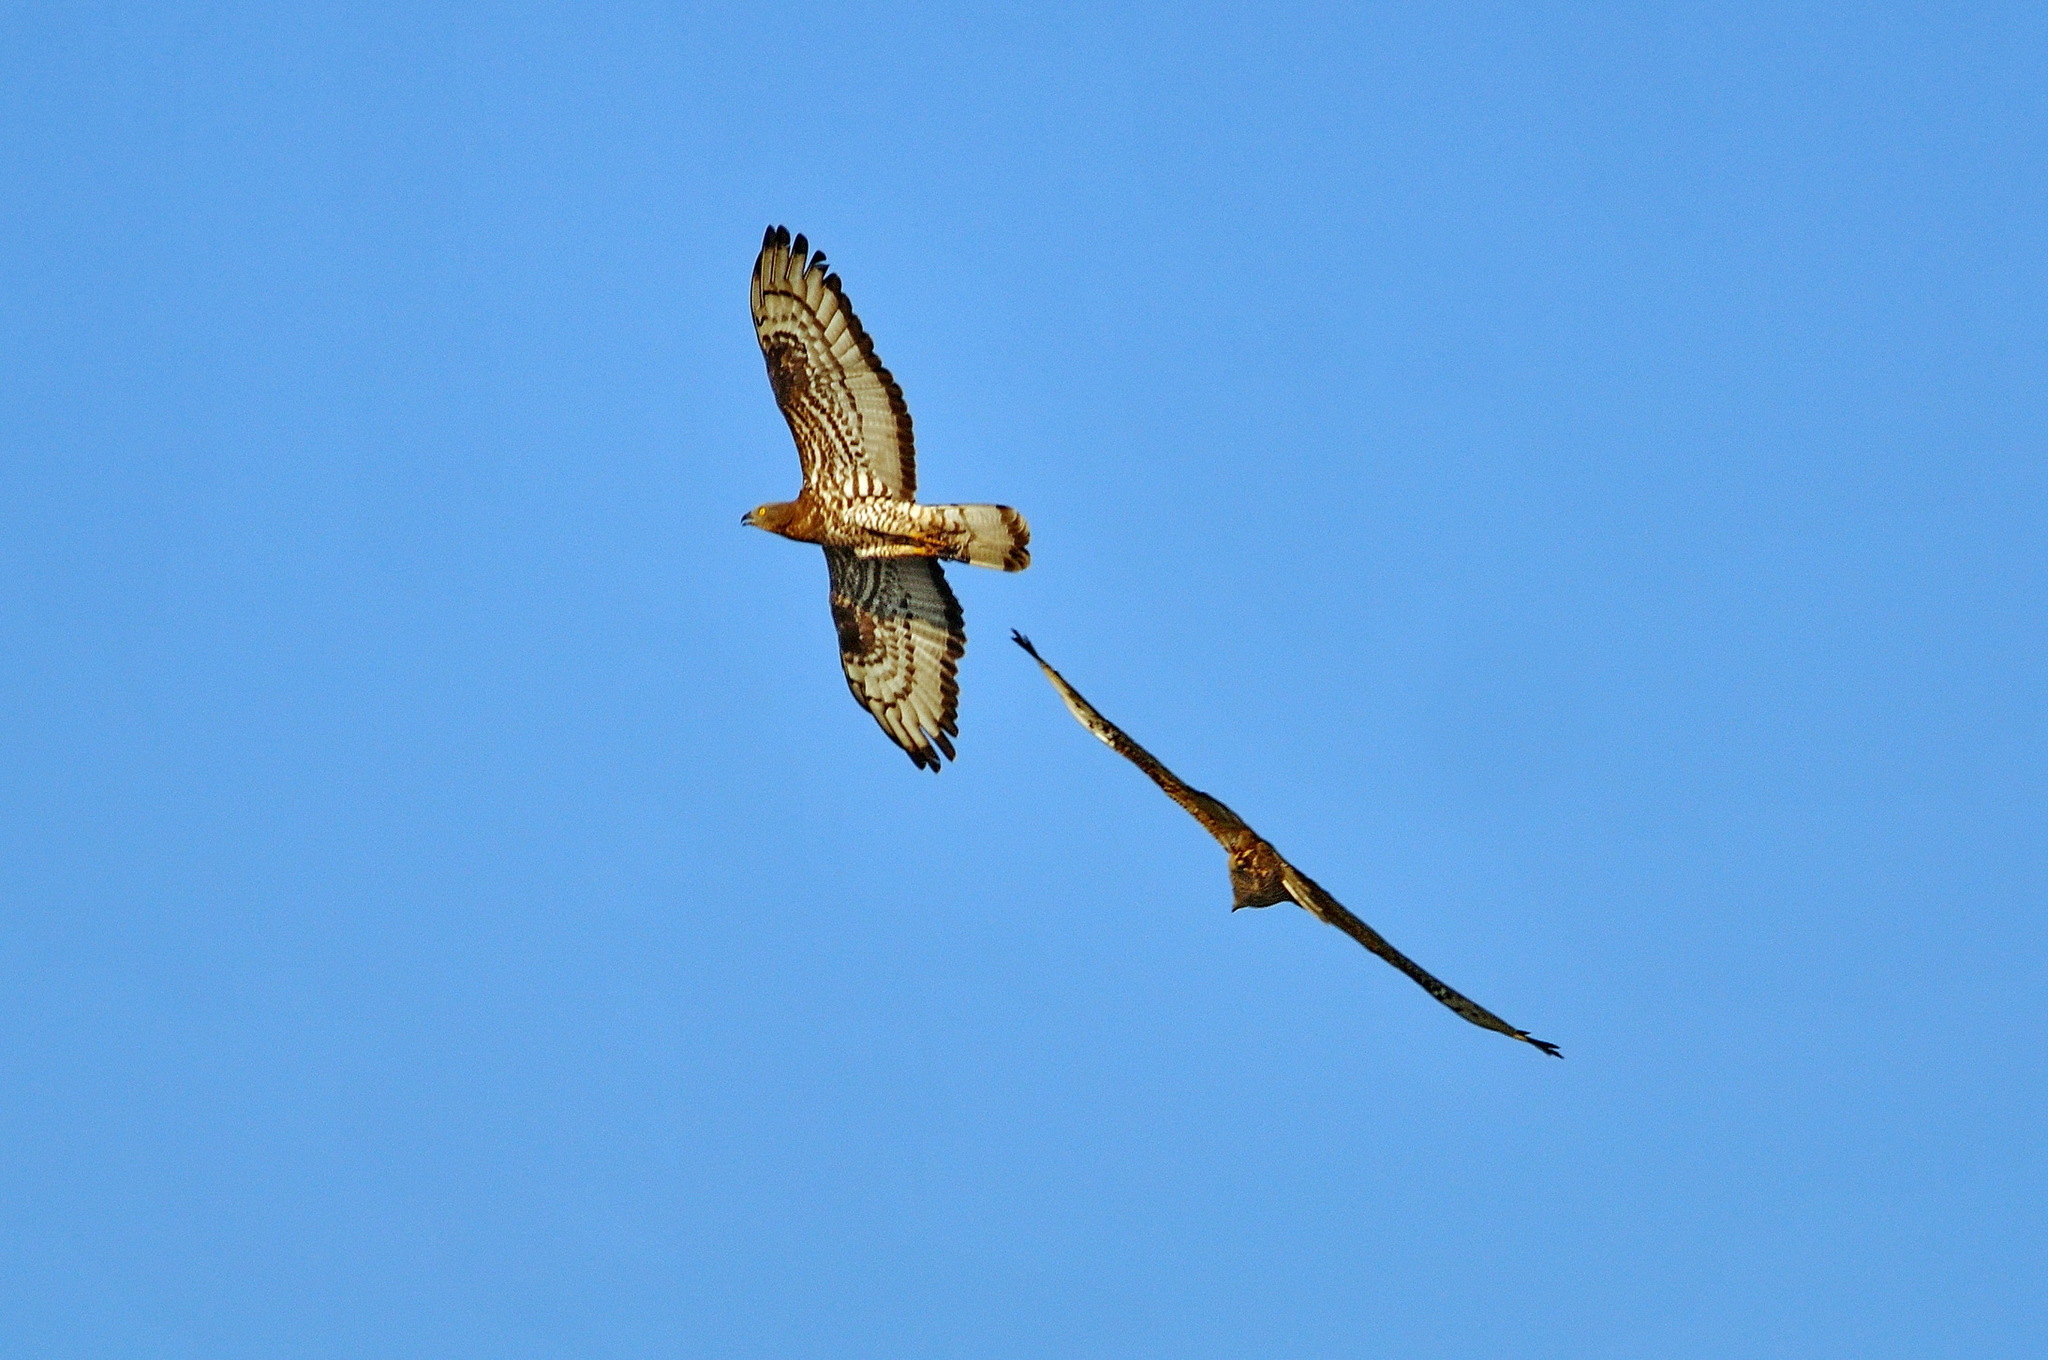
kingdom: Animalia
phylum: Chordata
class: Aves
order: Accipitriformes
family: Accipitridae
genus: Pernis
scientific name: Pernis apivorus
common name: European honey buzzard
